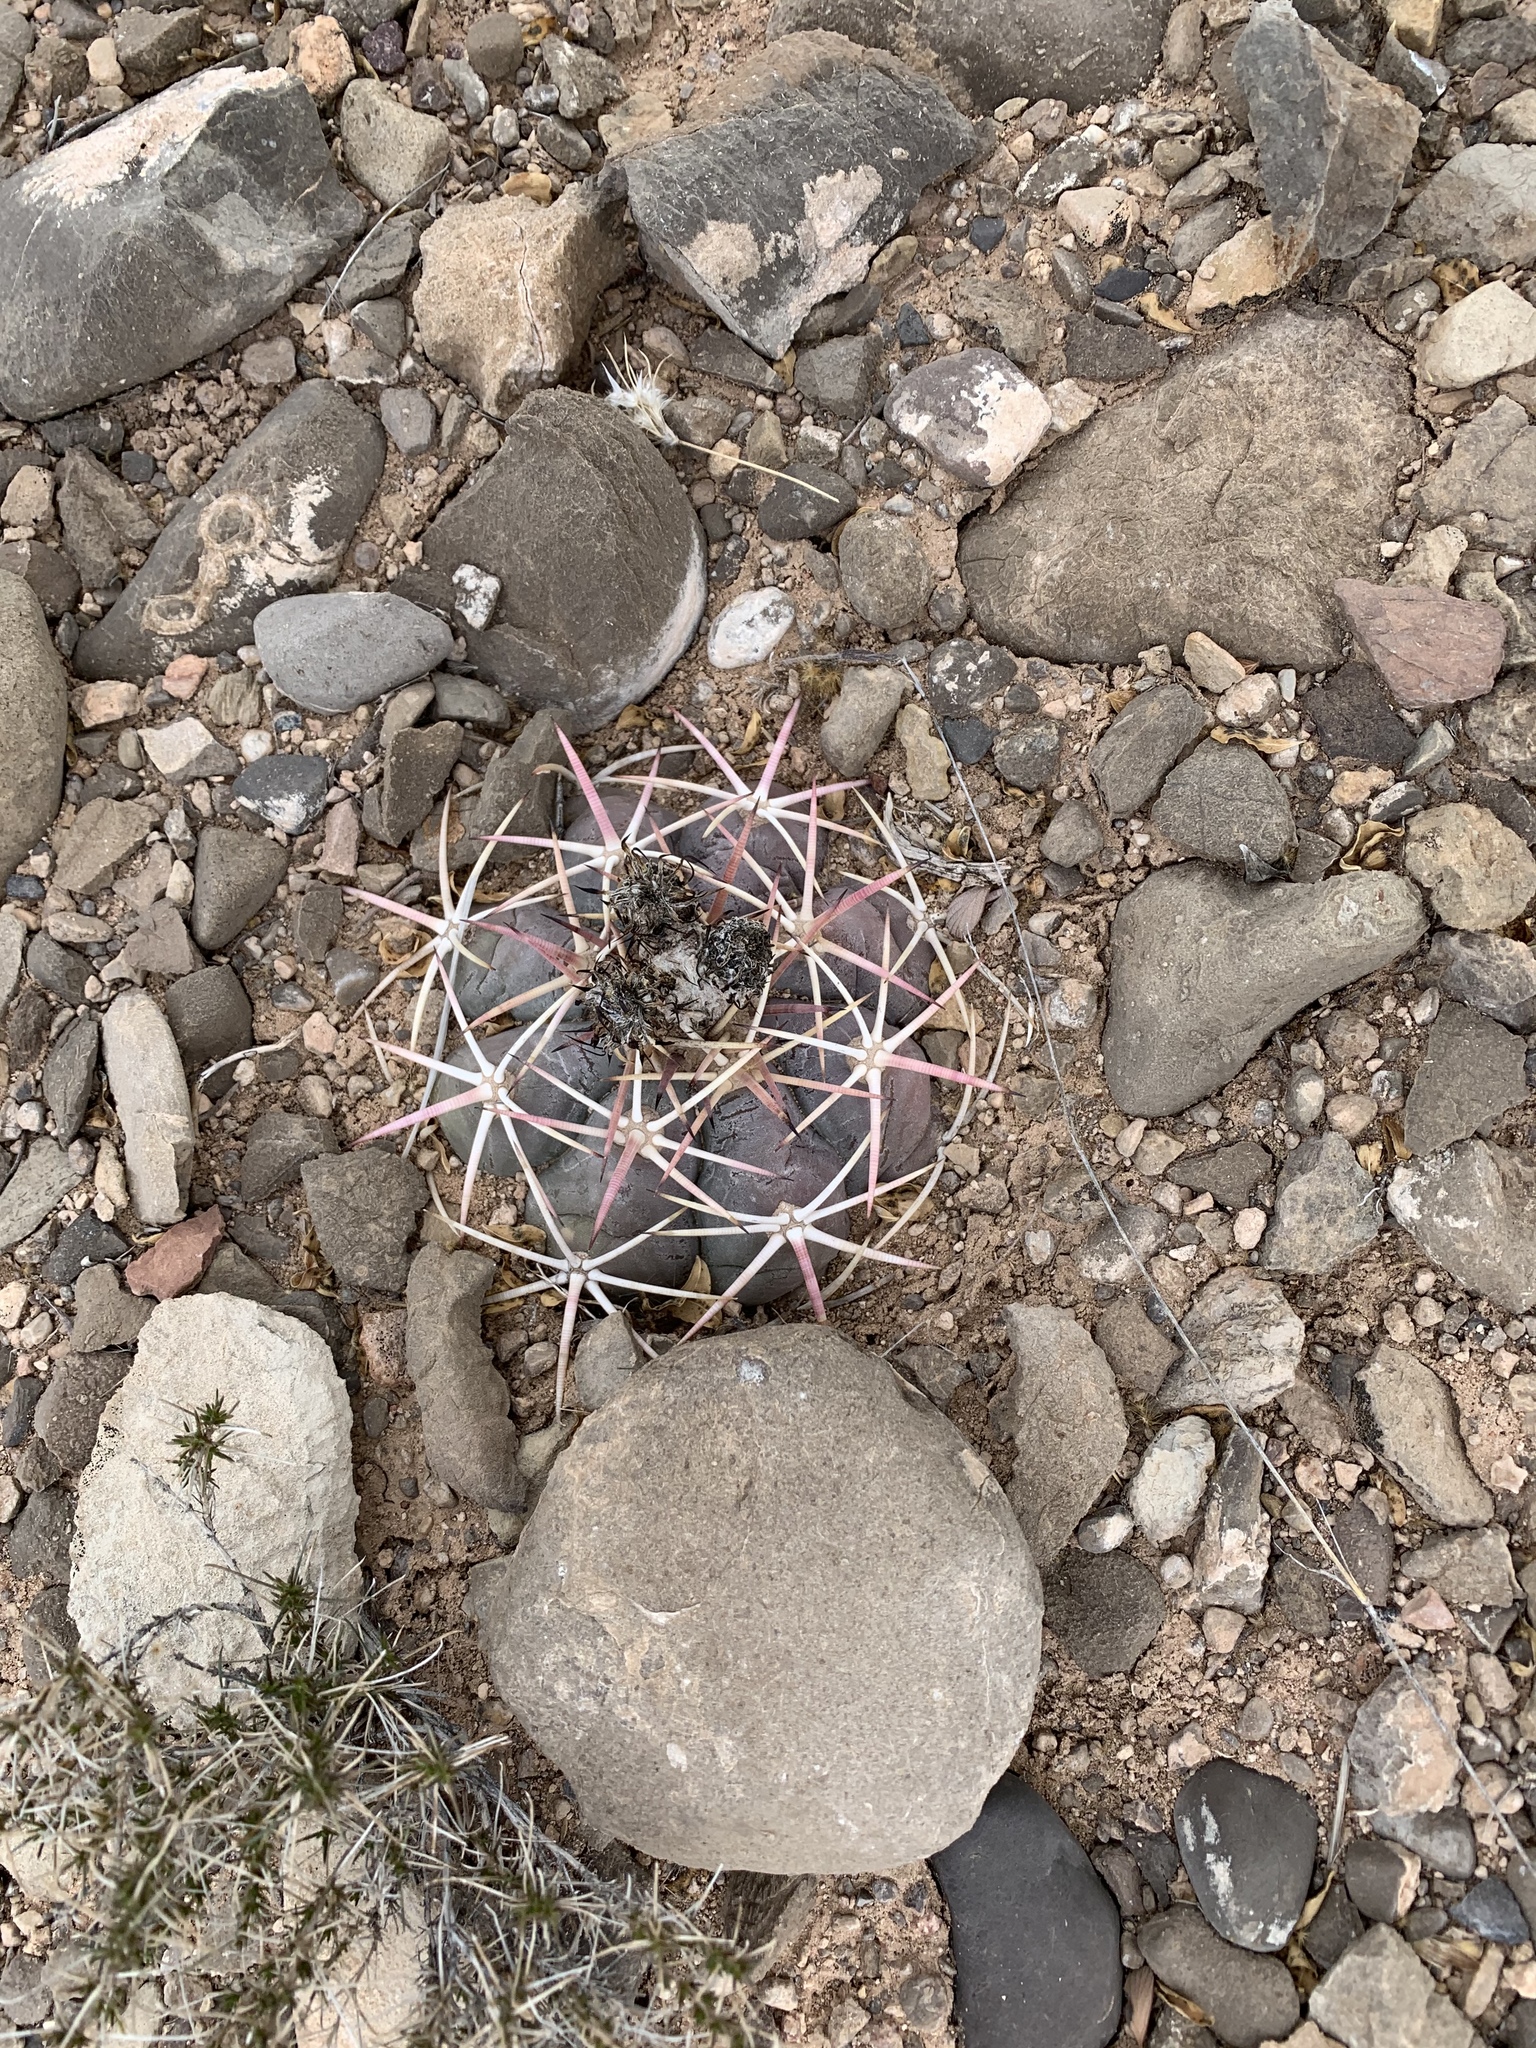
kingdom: Plantae
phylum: Tracheophyta
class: Magnoliopsida
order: Caryophyllales
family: Cactaceae
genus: Echinocactus
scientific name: Echinocactus horizonthalonius
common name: Devilshead
